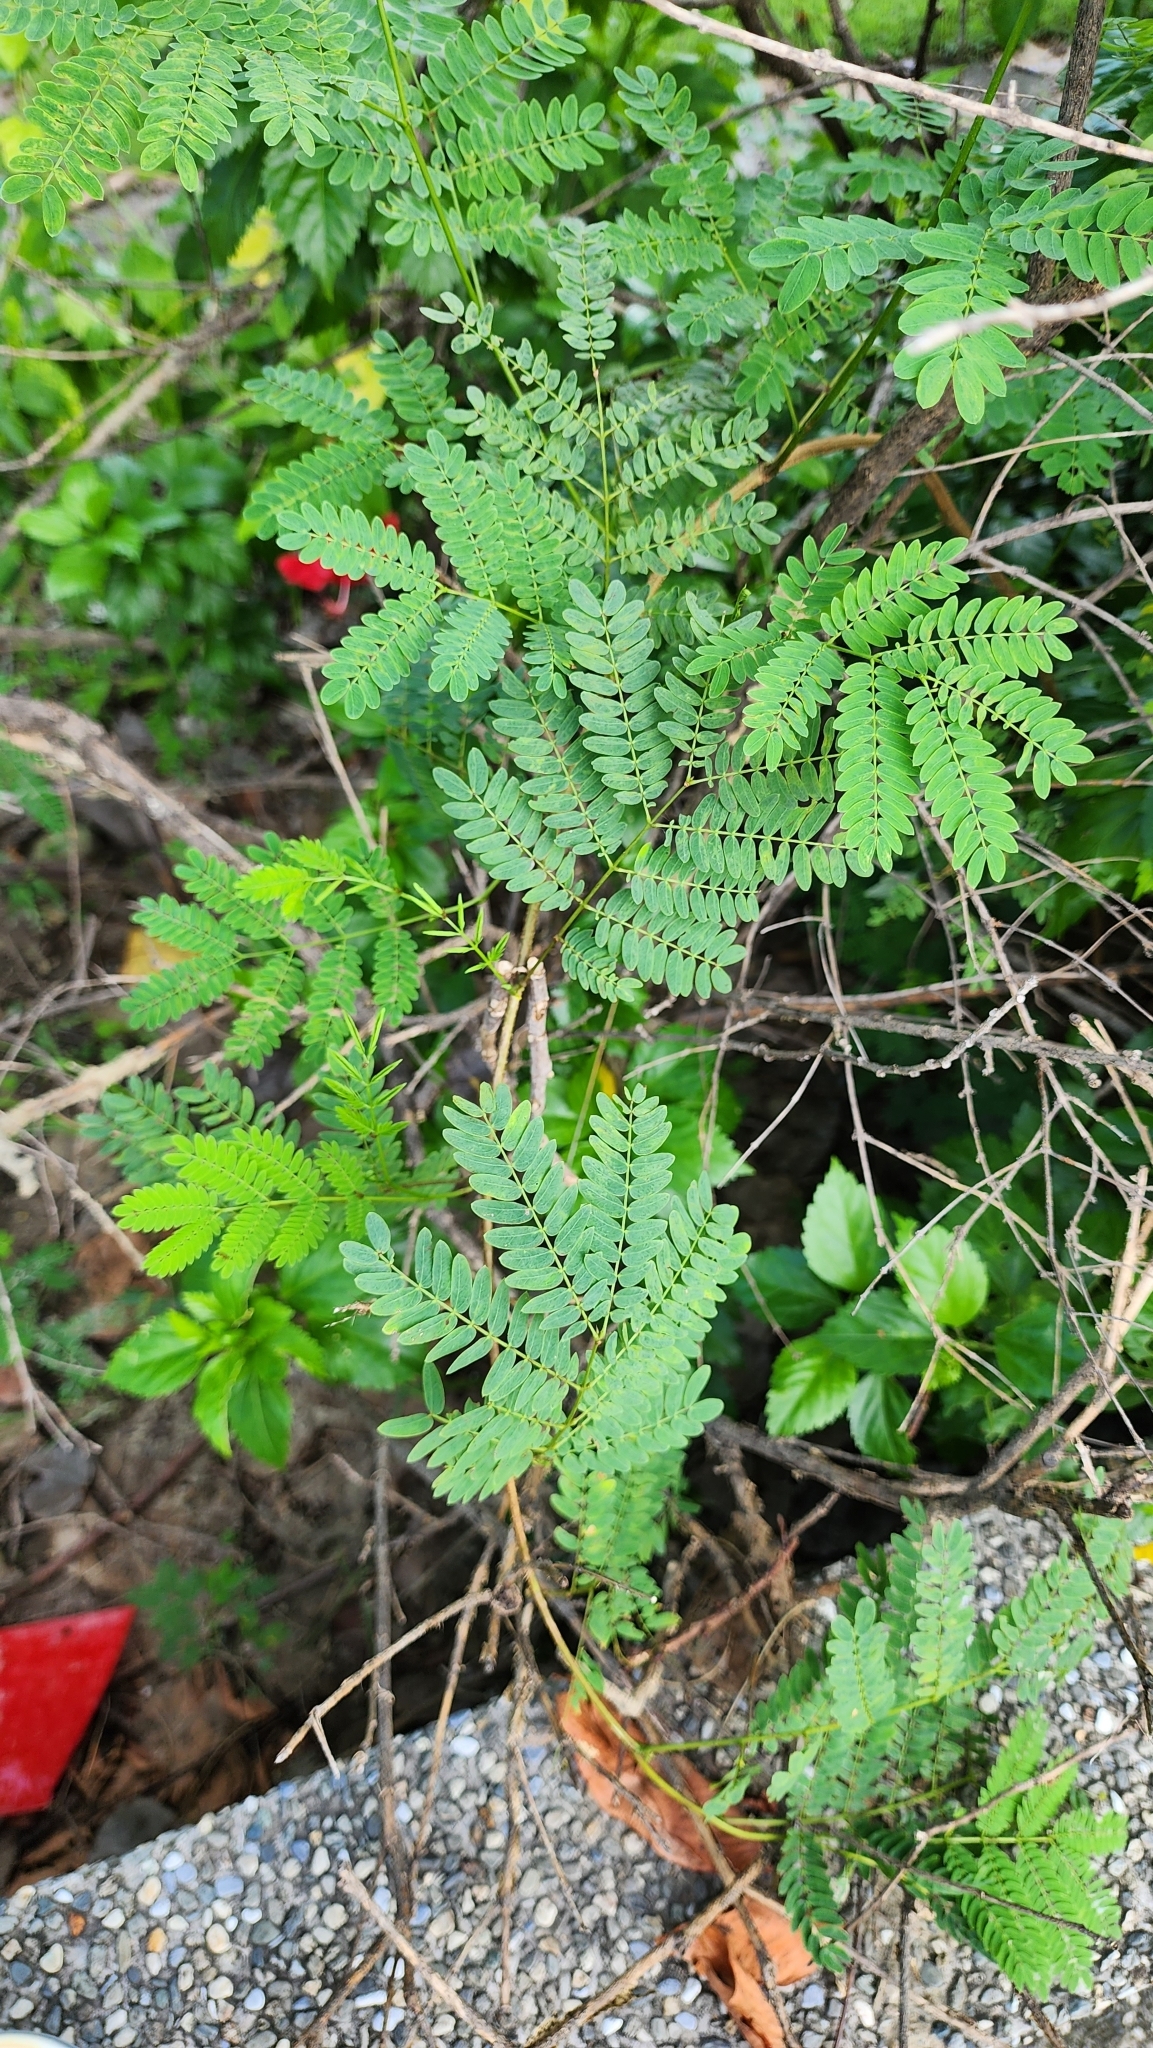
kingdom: Plantae
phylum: Tracheophyta
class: Magnoliopsida
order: Fabales
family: Fabaceae
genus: Leucaena
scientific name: Leucaena leucocephala
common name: White leadtree
